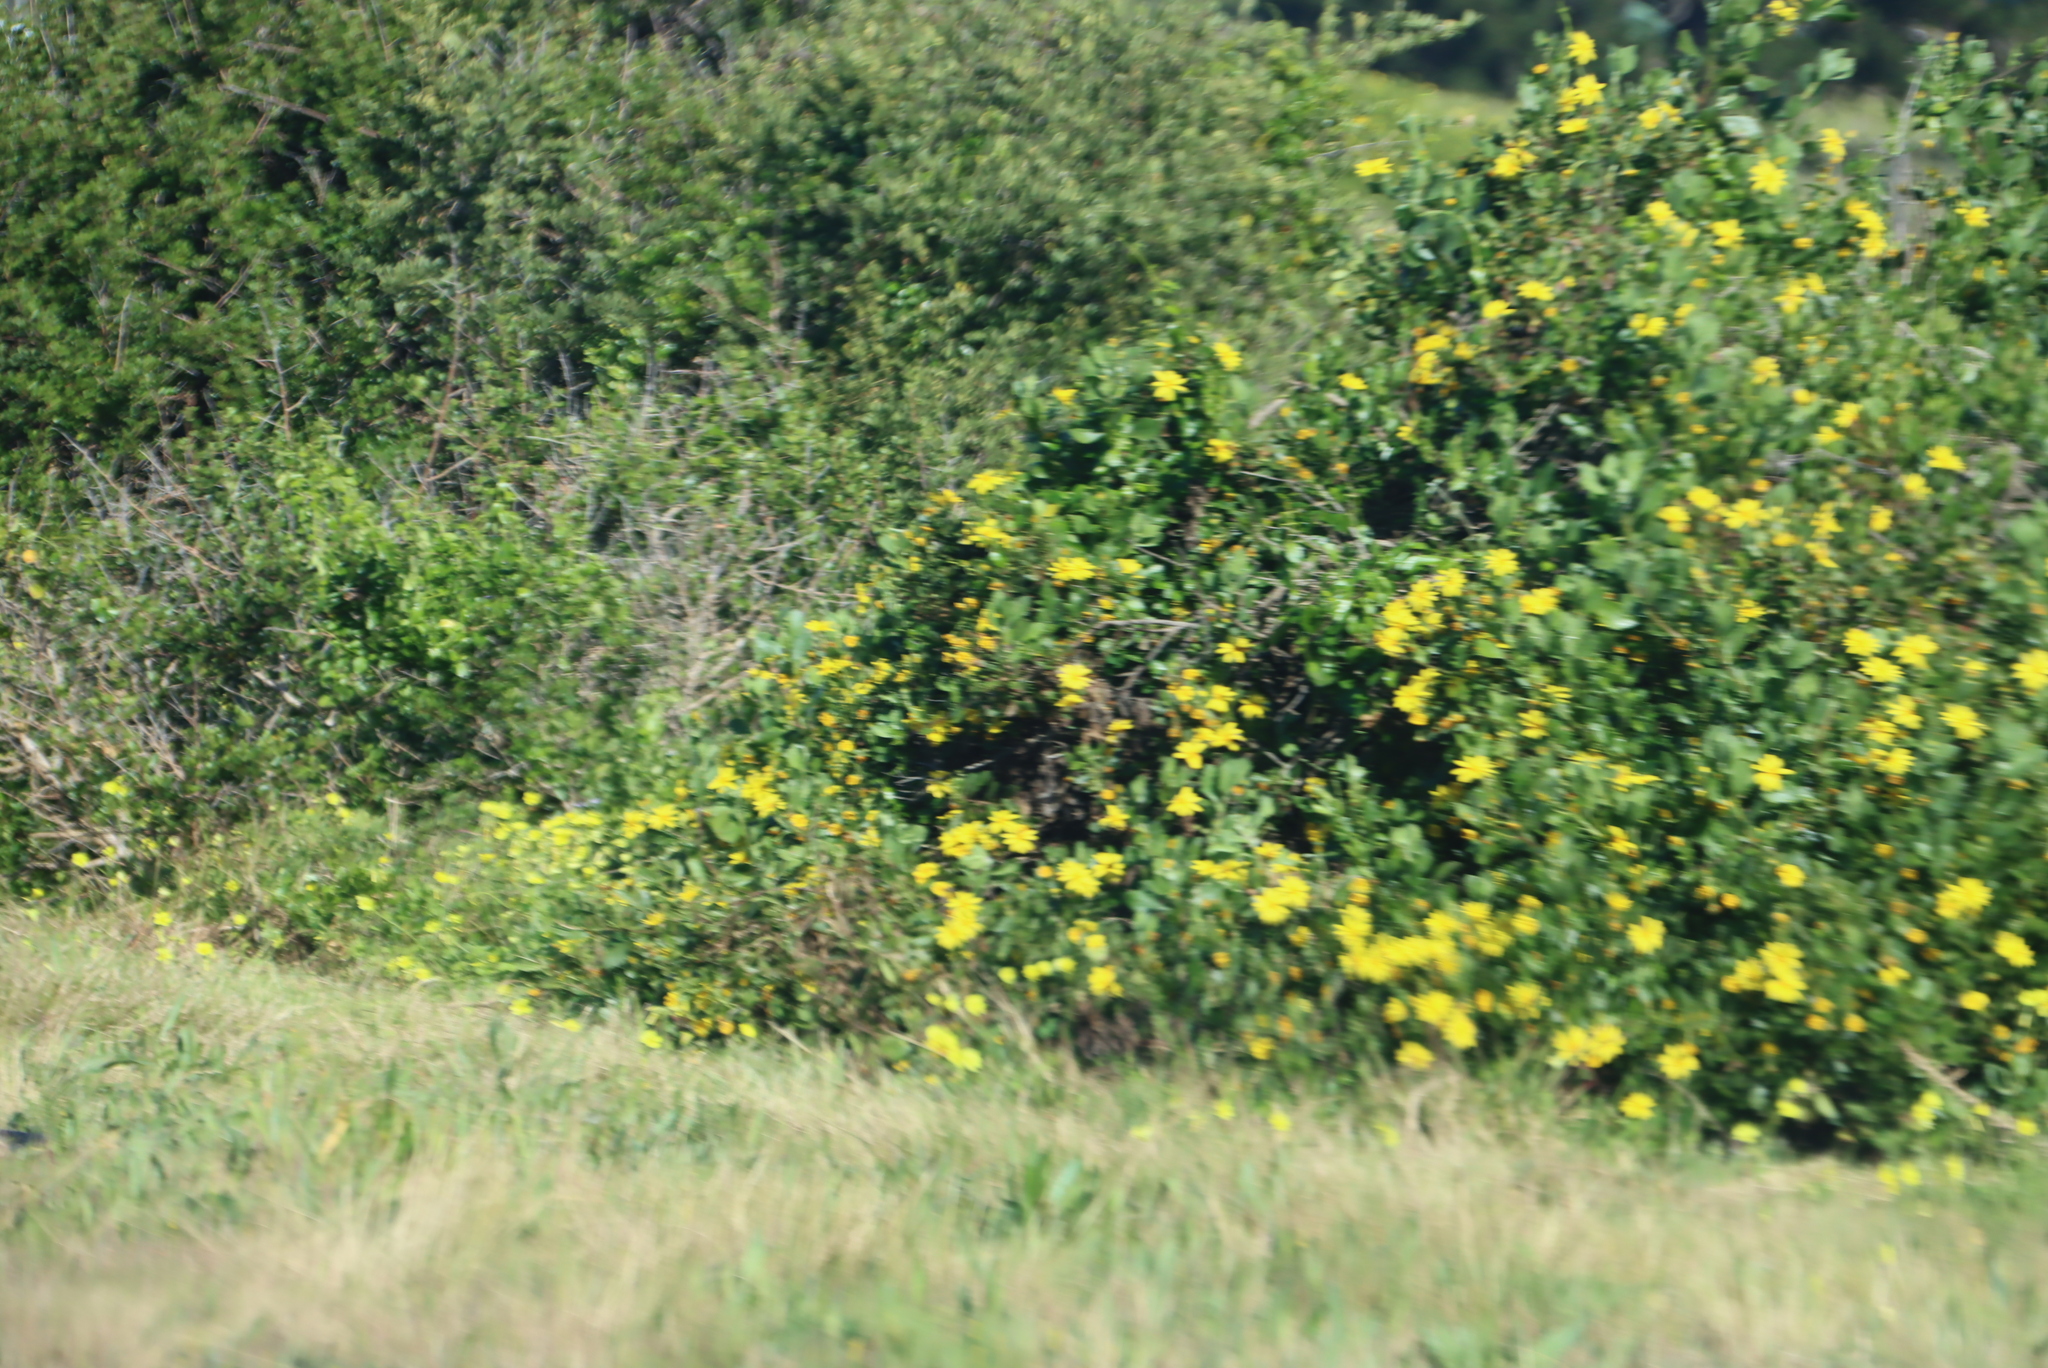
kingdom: Plantae
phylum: Tracheophyta
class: Magnoliopsida
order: Asterales
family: Asteraceae
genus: Osteospermum
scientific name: Osteospermum moniliferum
